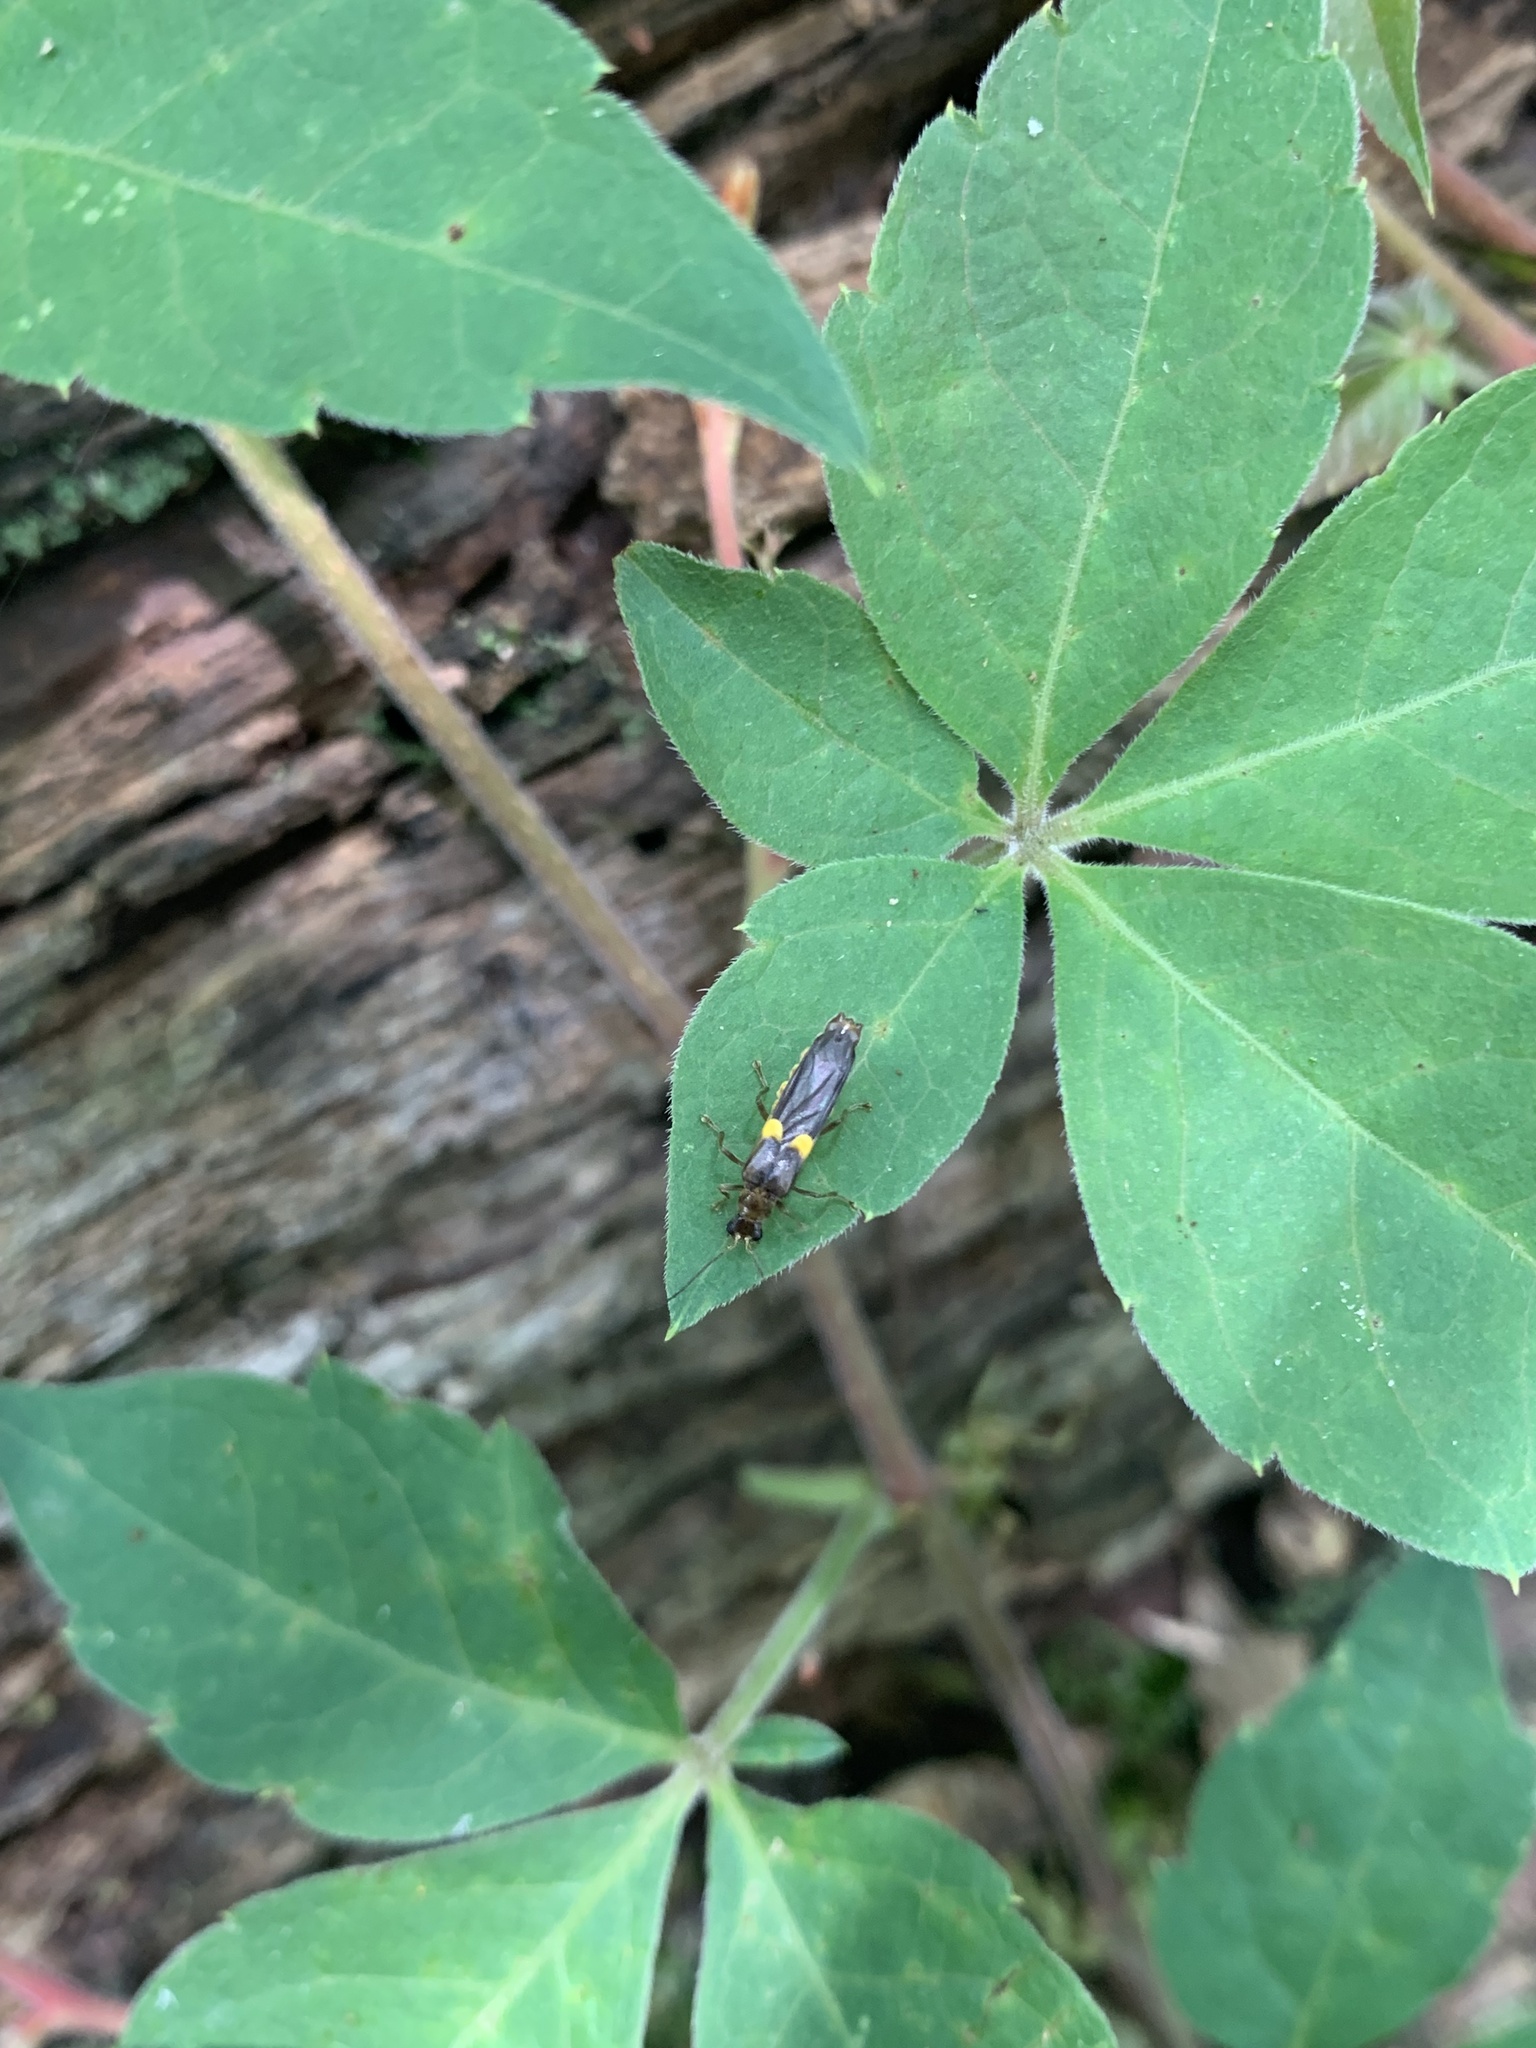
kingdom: Animalia
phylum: Arthropoda
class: Insecta
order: Coleoptera
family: Cantharidae
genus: Trypherus
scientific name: Trypherus frisoni
